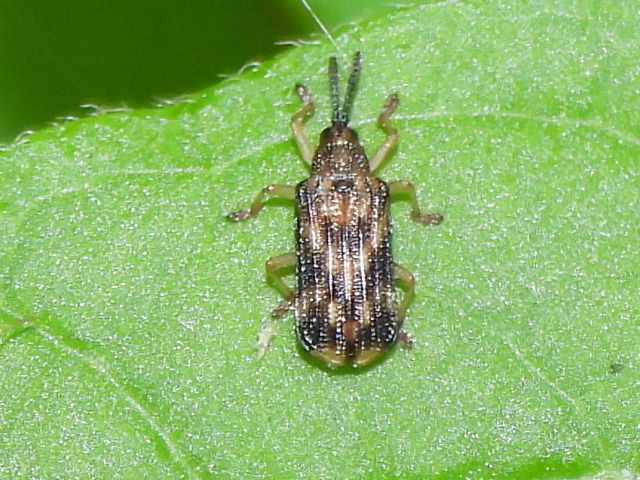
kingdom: Animalia
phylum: Arthropoda
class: Insecta
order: Coleoptera
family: Chrysomelidae
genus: Sumitrosis
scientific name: Sumitrosis inaequalis
